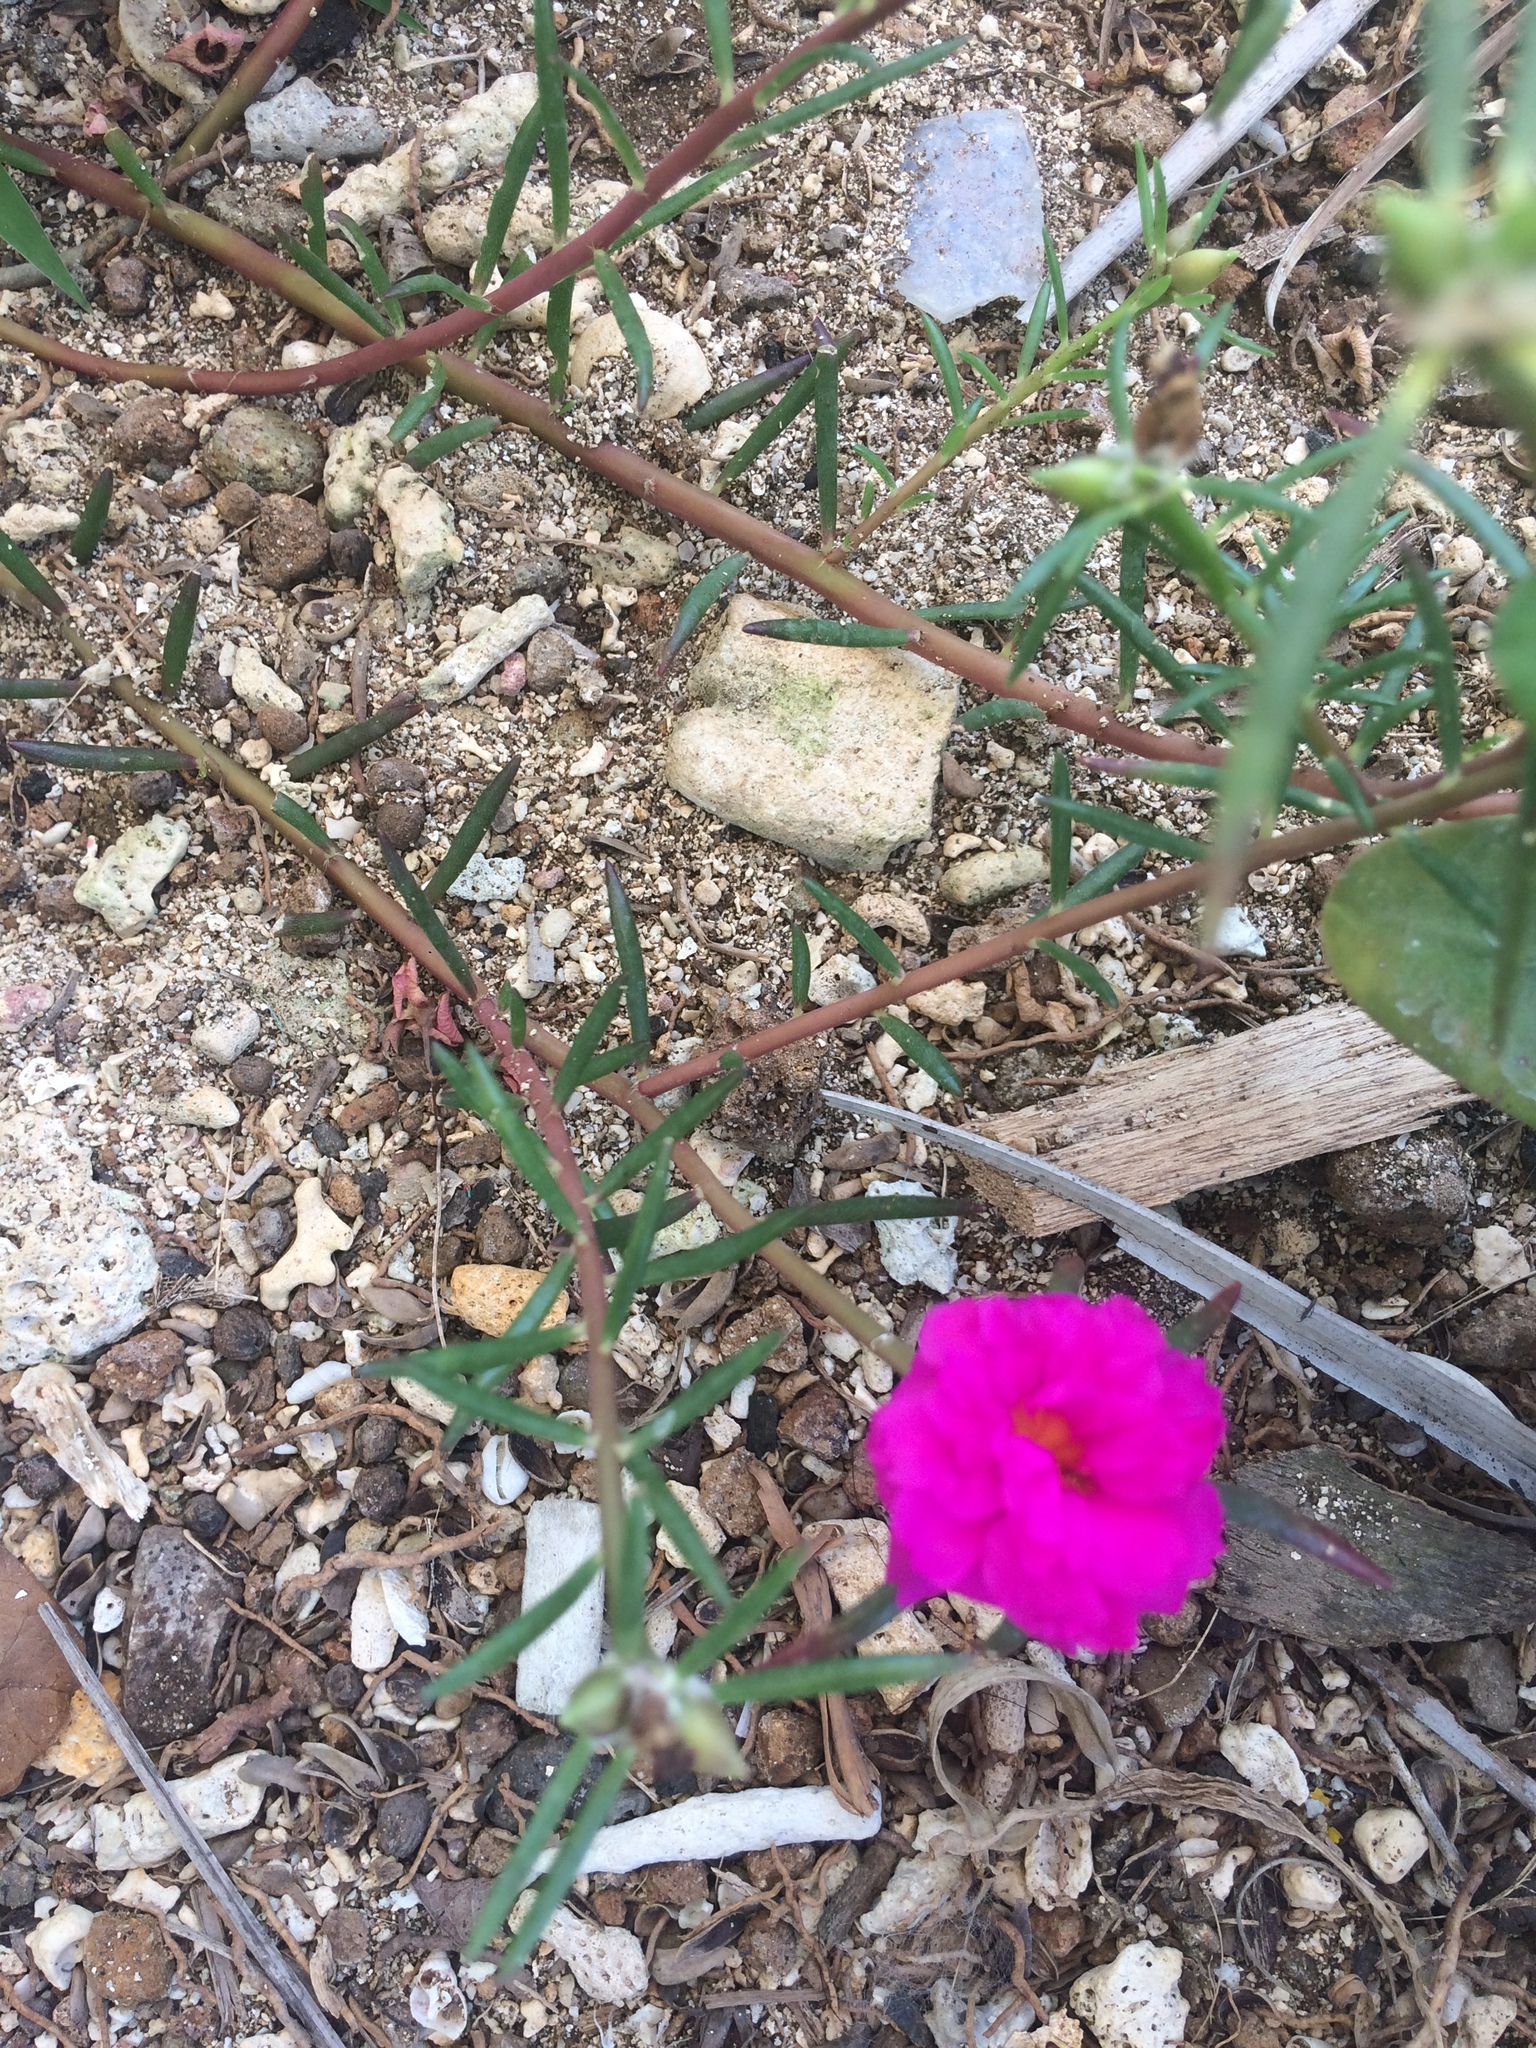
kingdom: Plantae
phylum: Tracheophyta
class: Magnoliopsida
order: Caryophyllales
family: Portulacaceae
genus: Portulaca
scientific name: Portulaca grandiflora
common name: Moss-rose
